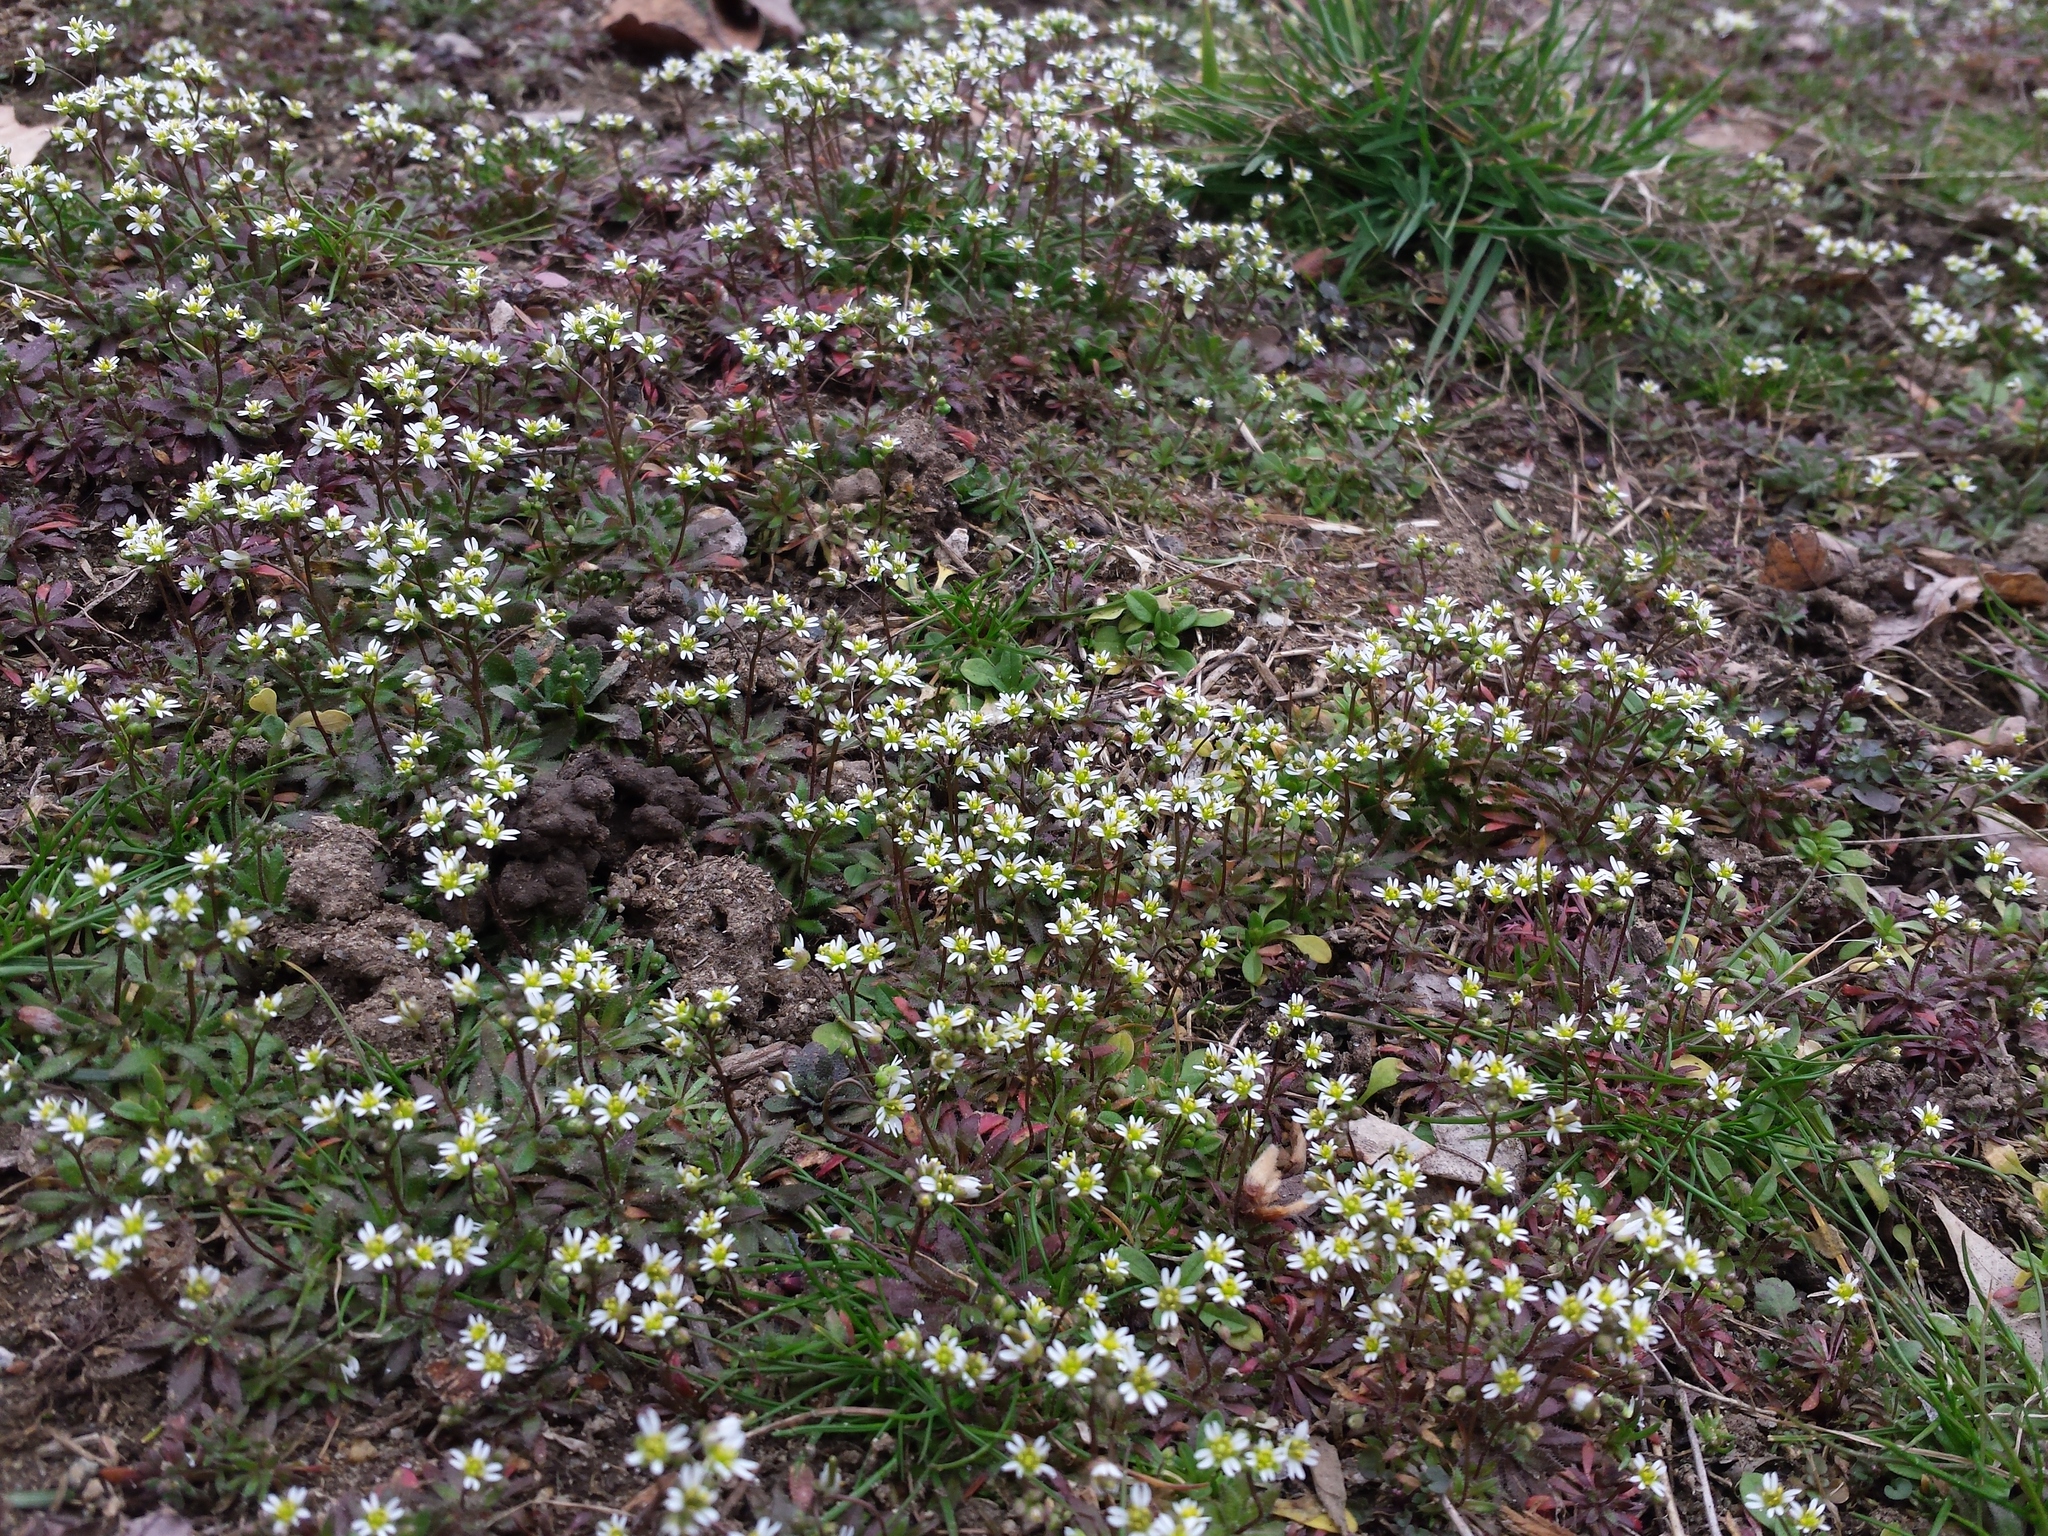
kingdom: Plantae
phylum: Tracheophyta
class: Magnoliopsida
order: Brassicales
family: Brassicaceae
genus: Draba
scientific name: Draba verna
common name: Spring draba
